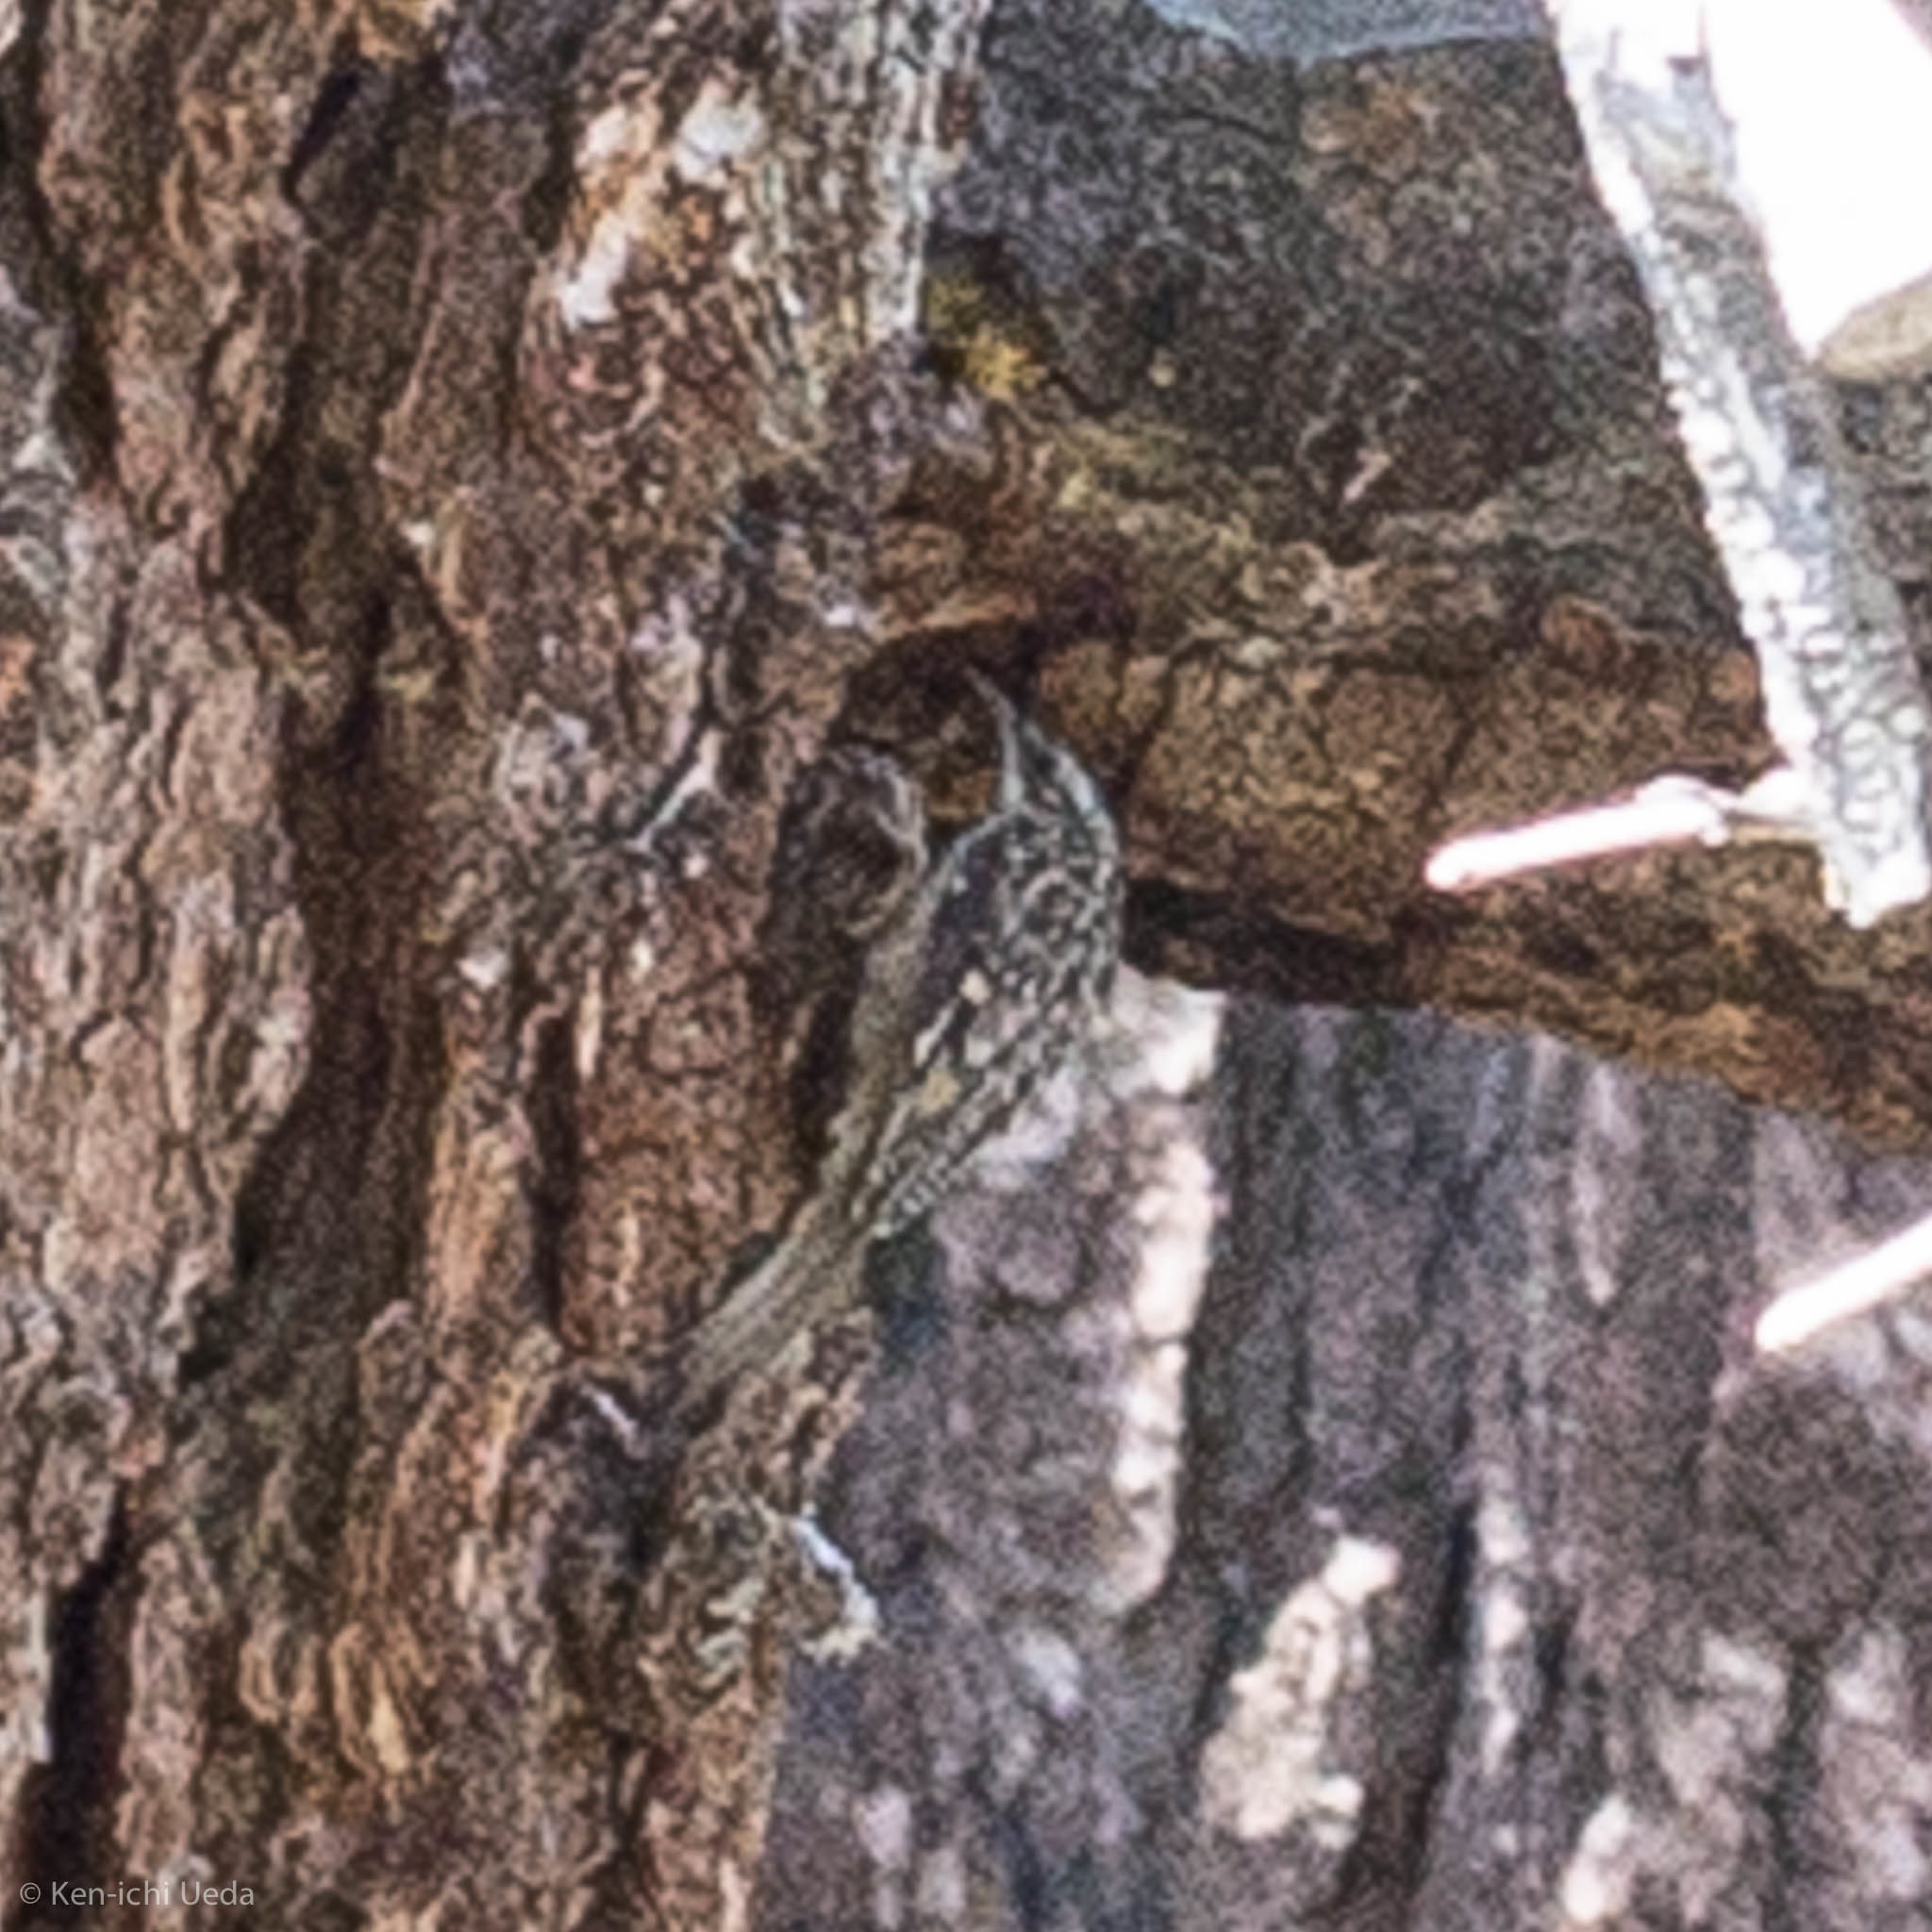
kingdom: Animalia
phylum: Chordata
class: Aves
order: Passeriformes
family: Certhiidae
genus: Certhia
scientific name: Certhia americana
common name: Brown creeper
